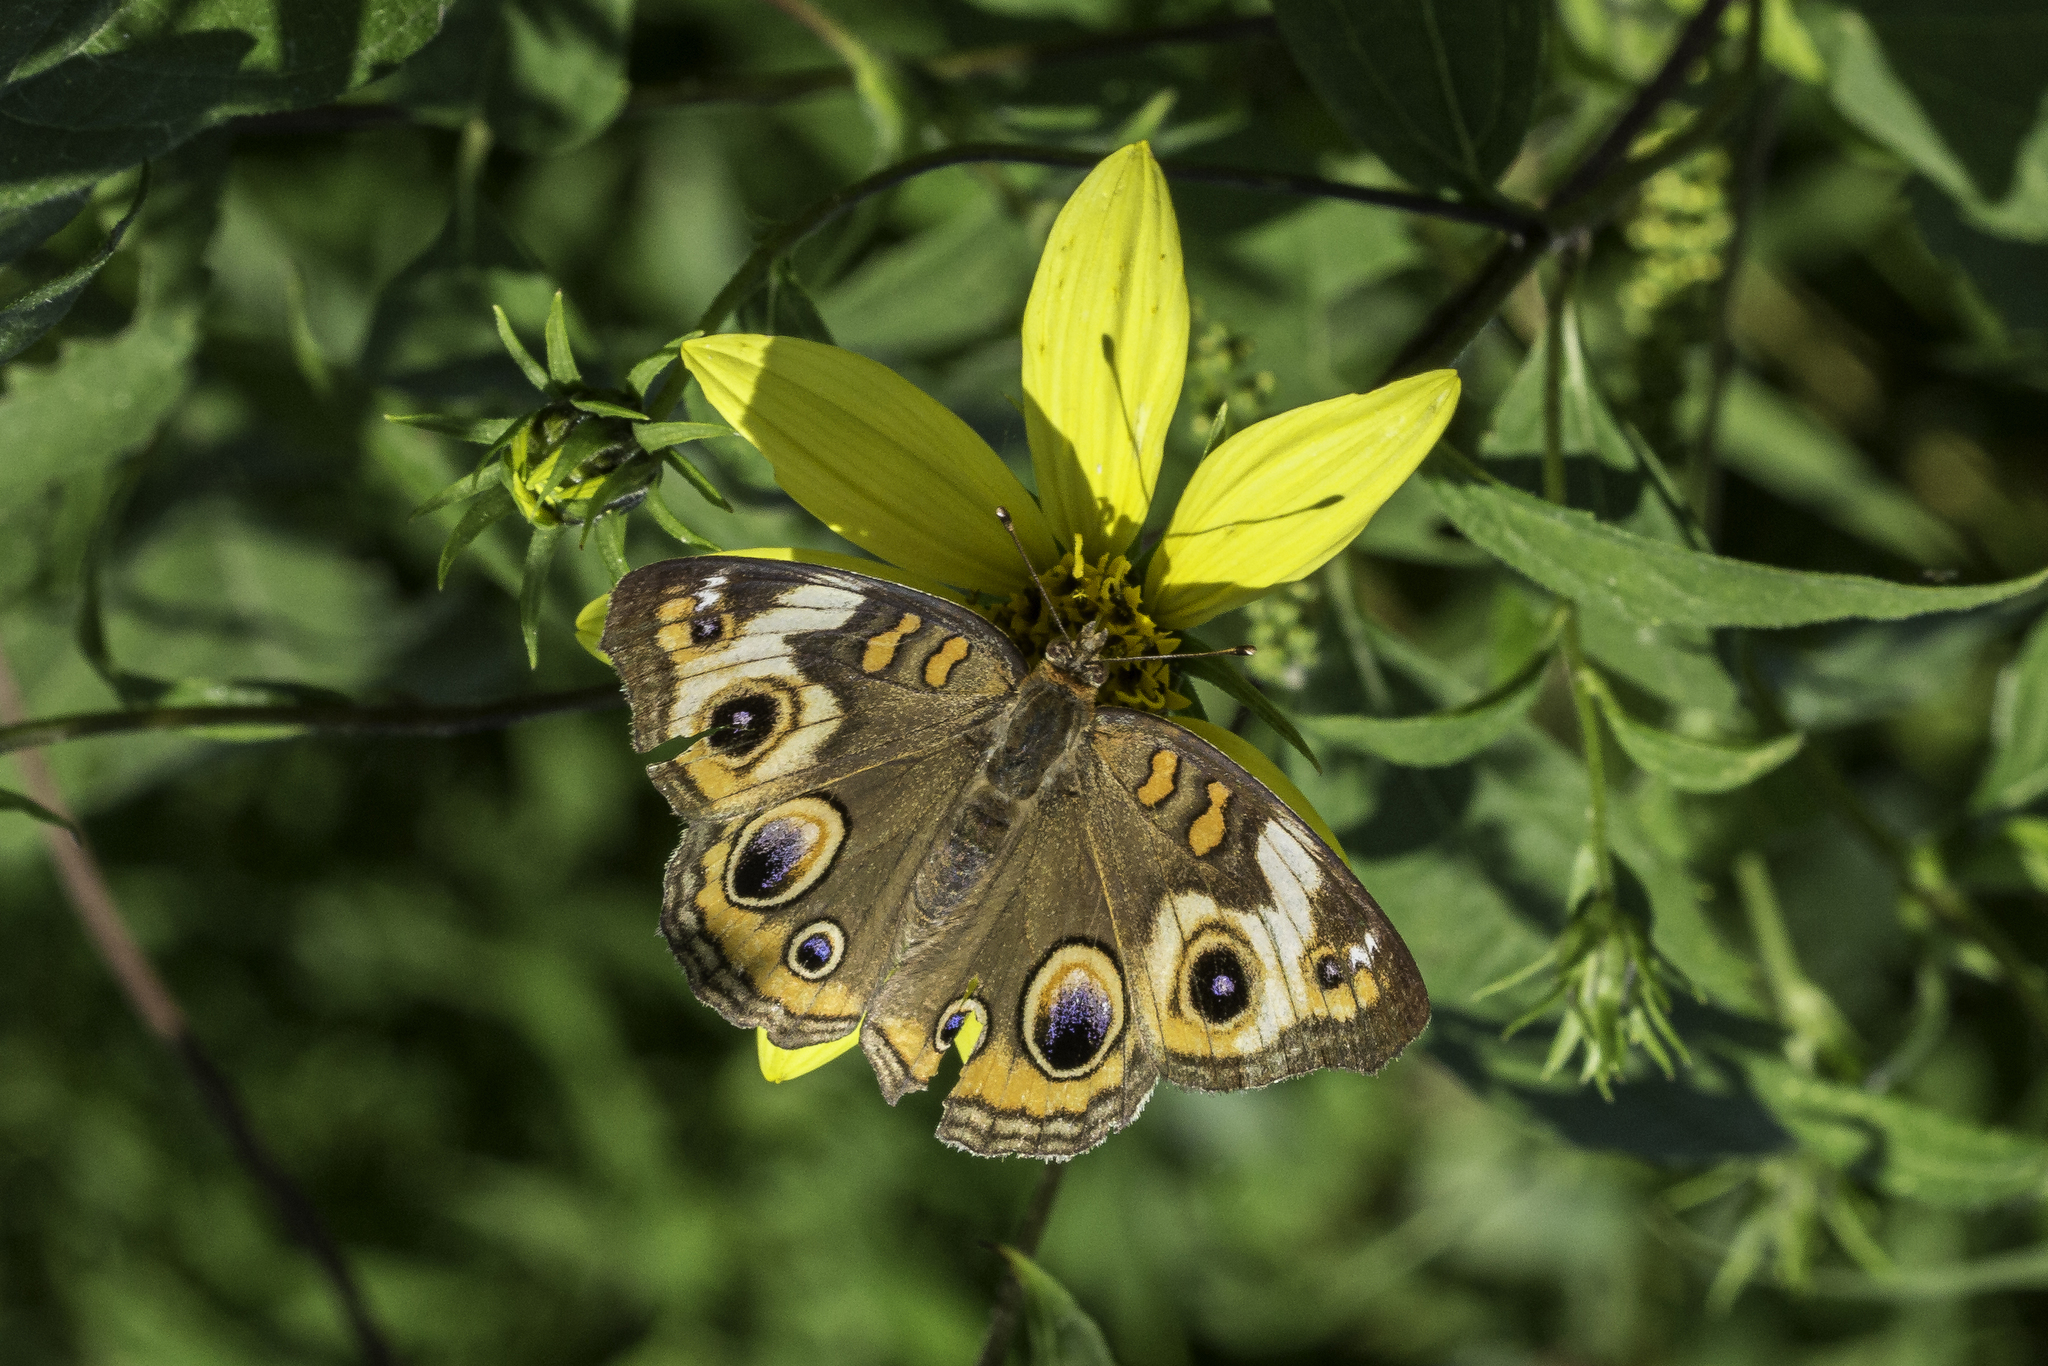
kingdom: Animalia
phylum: Arthropoda
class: Insecta
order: Lepidoptera
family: Nymphalidae
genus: Junonia
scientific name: Junonia coenia
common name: Common buckeye
